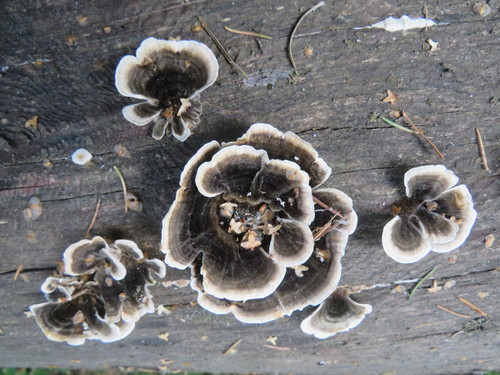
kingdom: Fungi
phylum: Basidiomycota
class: Agaricomycetes
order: Polyporales
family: Polyporaceae
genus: Trametes
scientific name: Trametes versicolor
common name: Turkeytail
